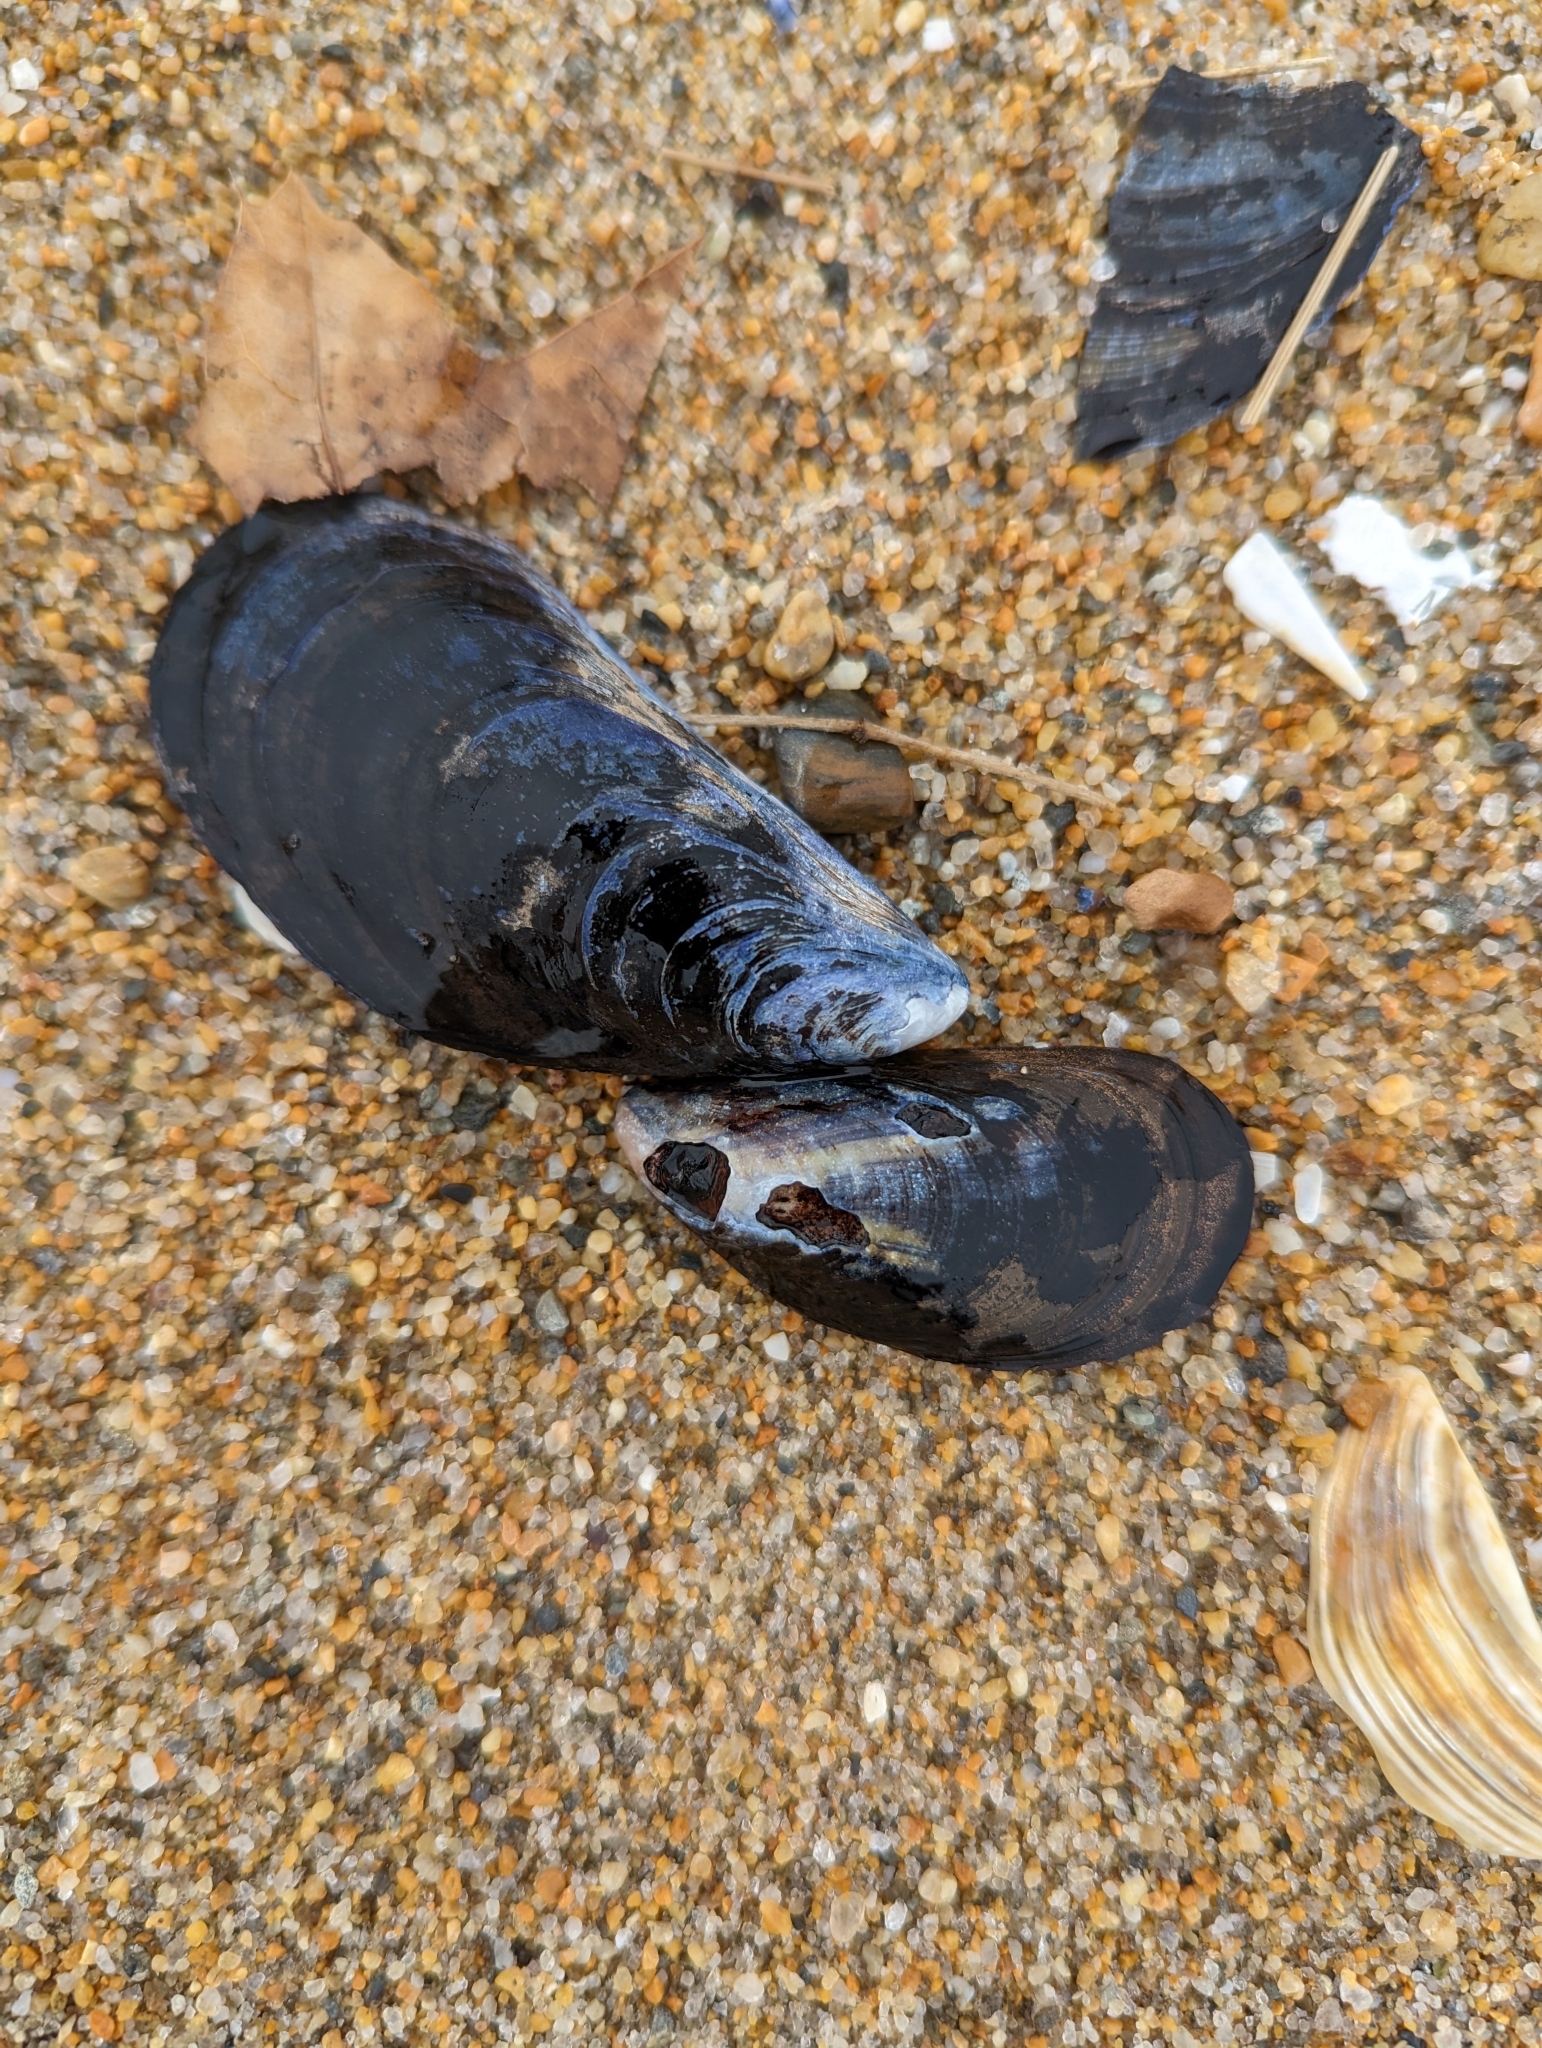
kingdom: Animalia
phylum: Mollusca
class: Bivalvia
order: Mytilida
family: Mytilidae
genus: Mytilus
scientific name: Mytilus edulis
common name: Blue mussel
